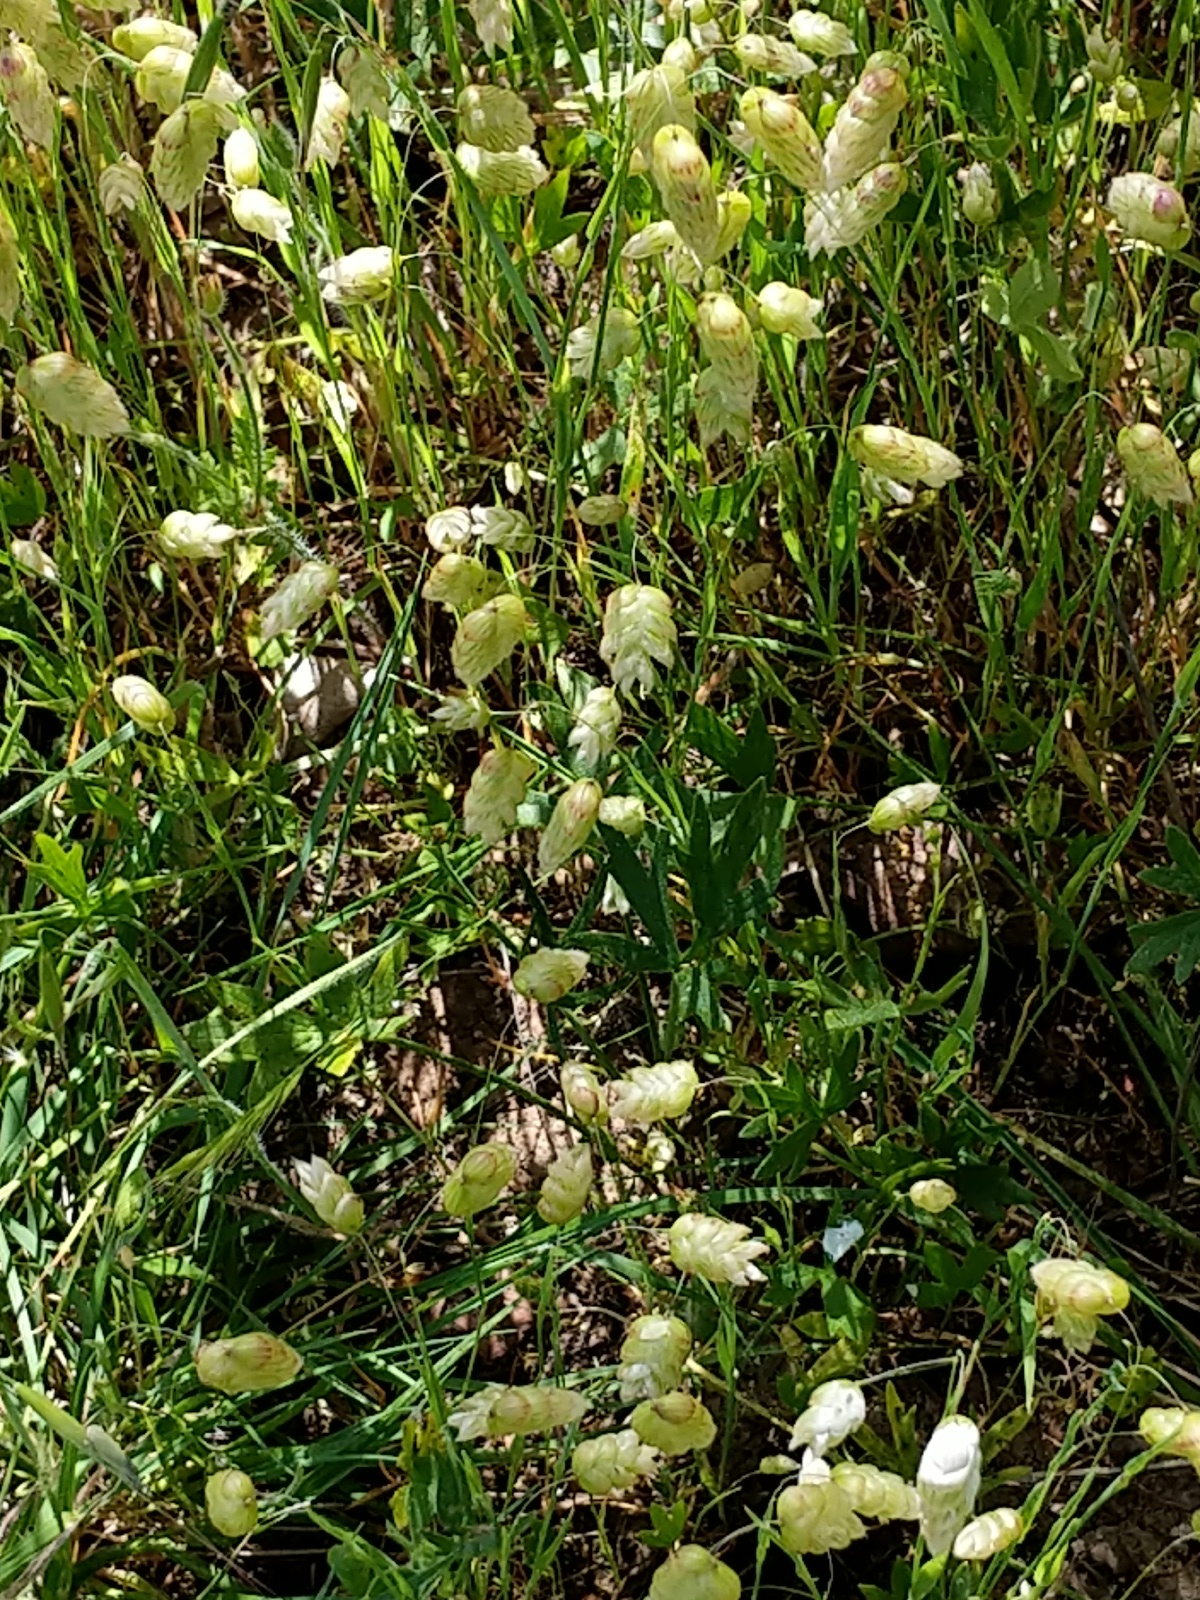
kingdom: Plantae
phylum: Tracheophyta
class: Liliopsida
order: Poales
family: Poaceae
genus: Briza
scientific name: Briza maxima
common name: Big quakinggrass
